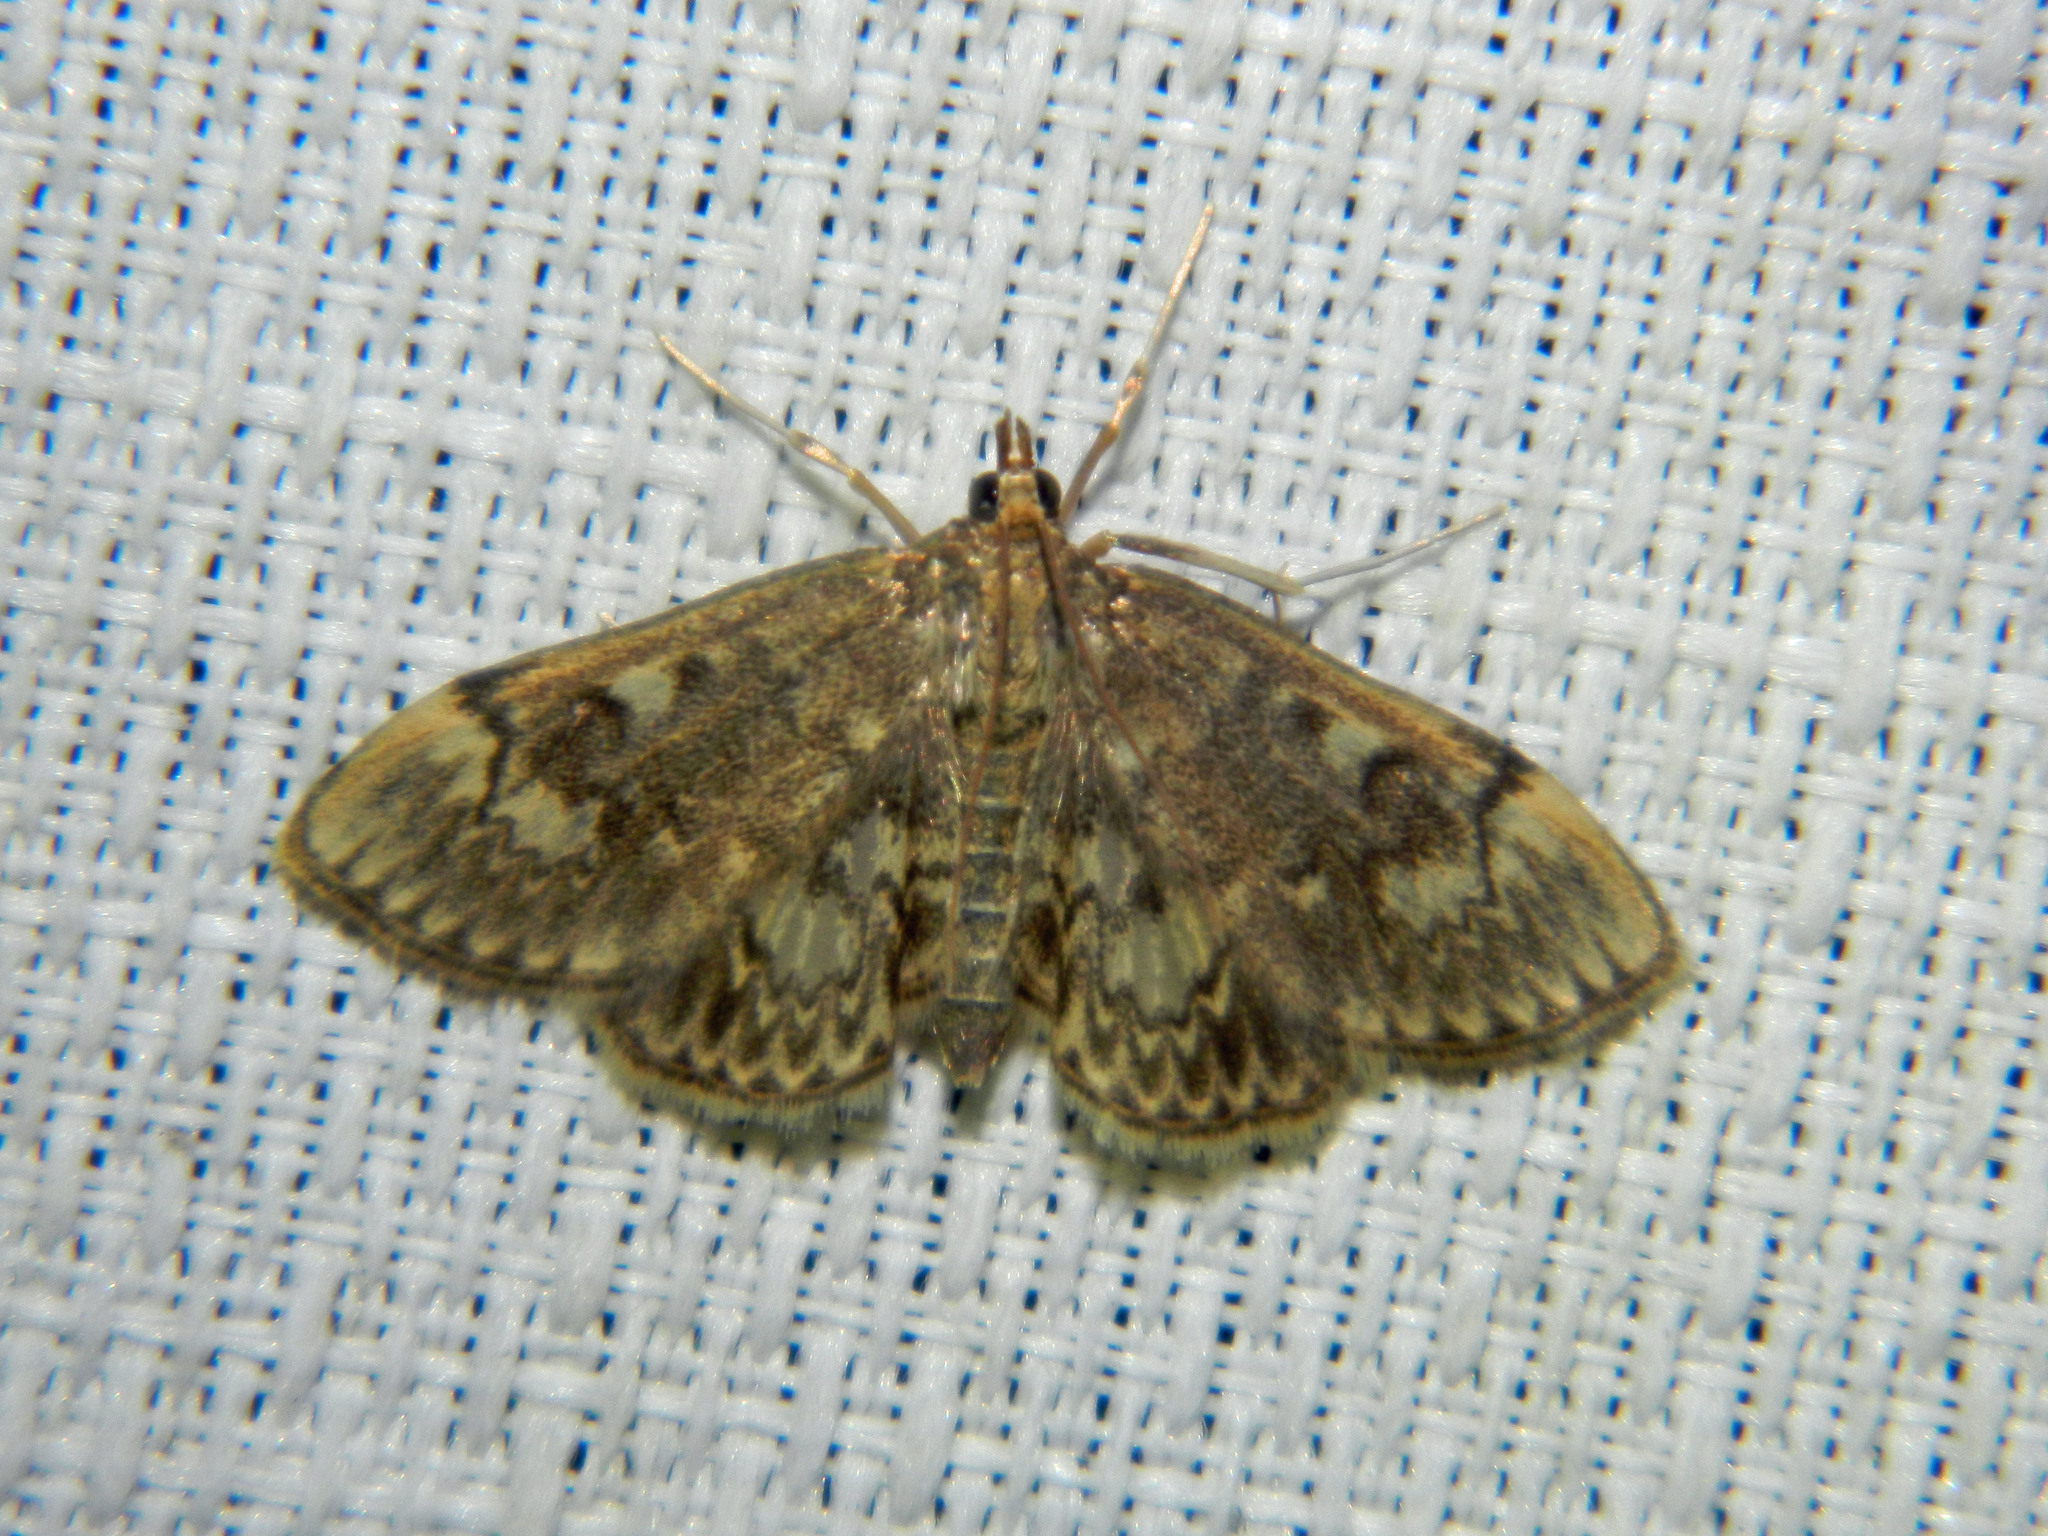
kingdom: Animalia
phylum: Arthropoda
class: Insecta
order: Lepidoptera
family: Crambidae
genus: Anania
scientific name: Anania
